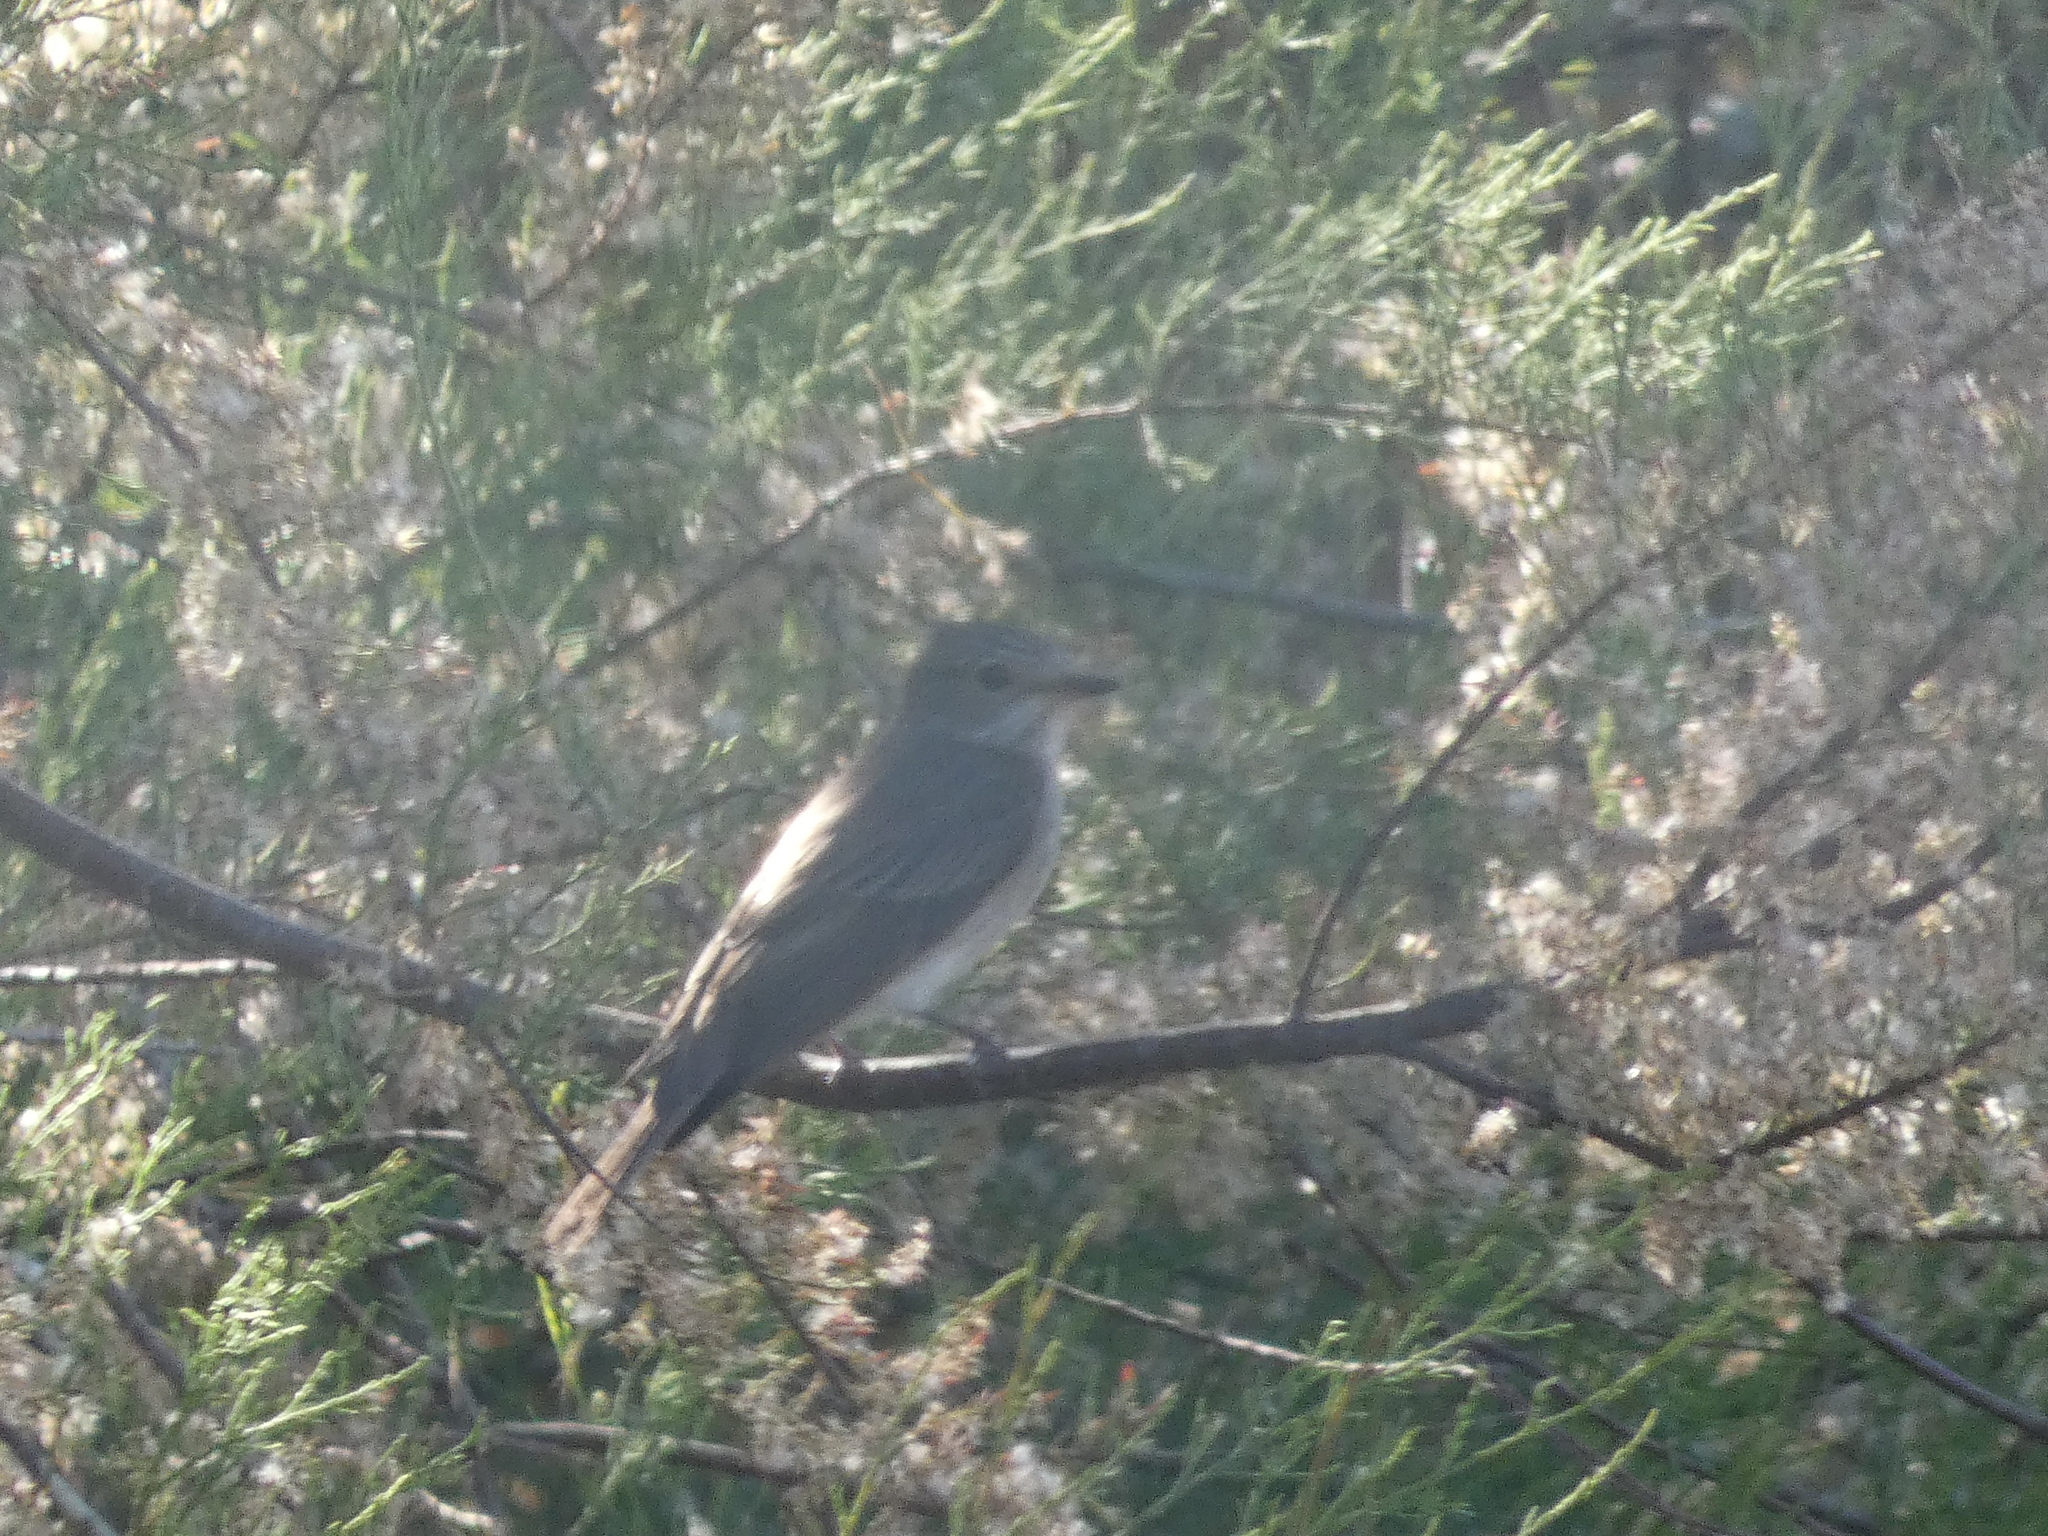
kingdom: Animalia
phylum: Chordata
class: Aves
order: Passeriformes
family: Muscicapidae
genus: Muscicapa
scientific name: Muscicapa striata
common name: Spotted flycatcher
